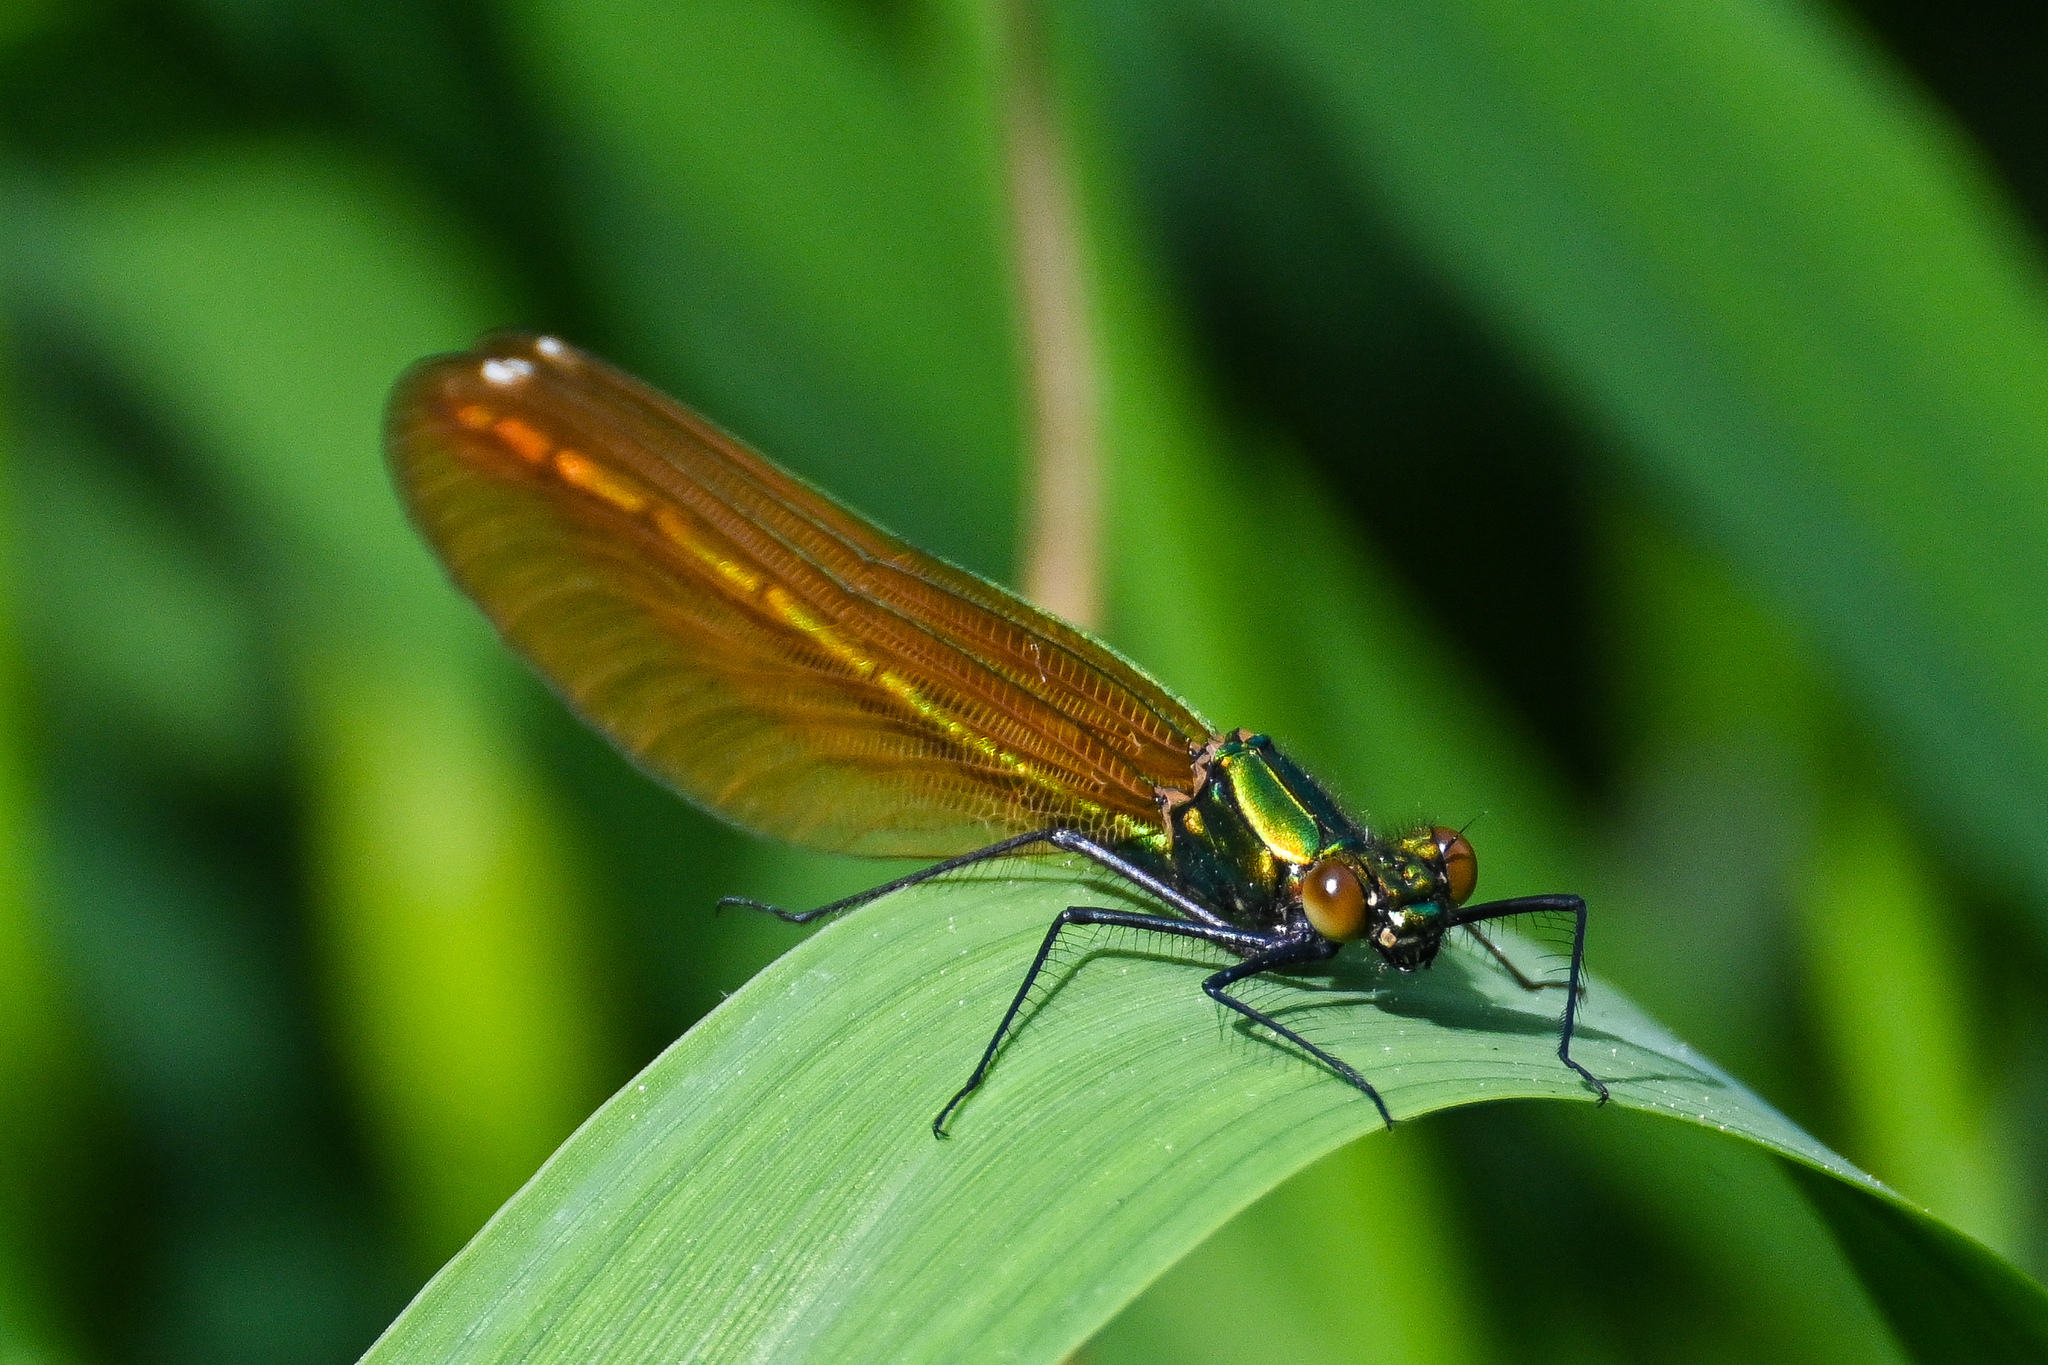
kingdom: Animalia
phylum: Arthropoda
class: Insecta
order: Odonata
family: Calopterygidae
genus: Calopteryx
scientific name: Calopteryx virgo
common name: Beautiful demoiselle
